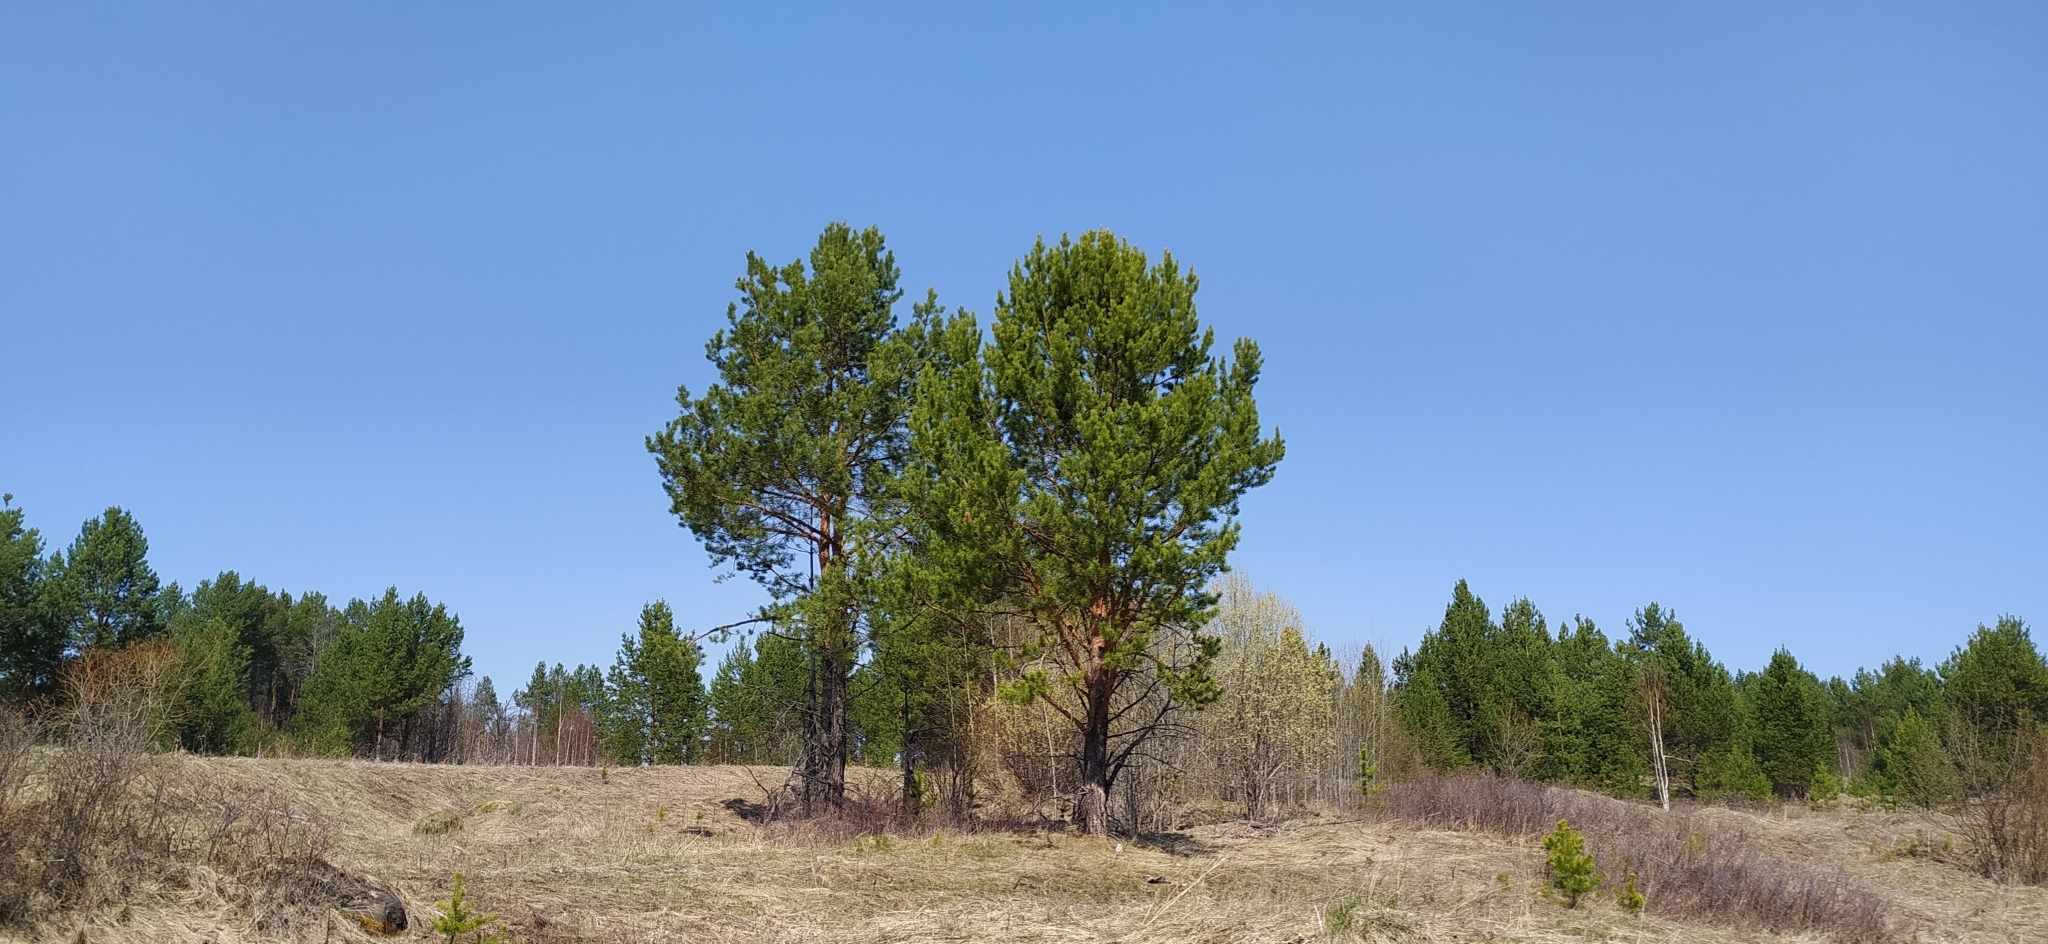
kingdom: Plantae
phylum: Tracheophyta
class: Pinopsida
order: Pinales
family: Pinaceae
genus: Pinus
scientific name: Pinus sylvestris
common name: Scots pine
